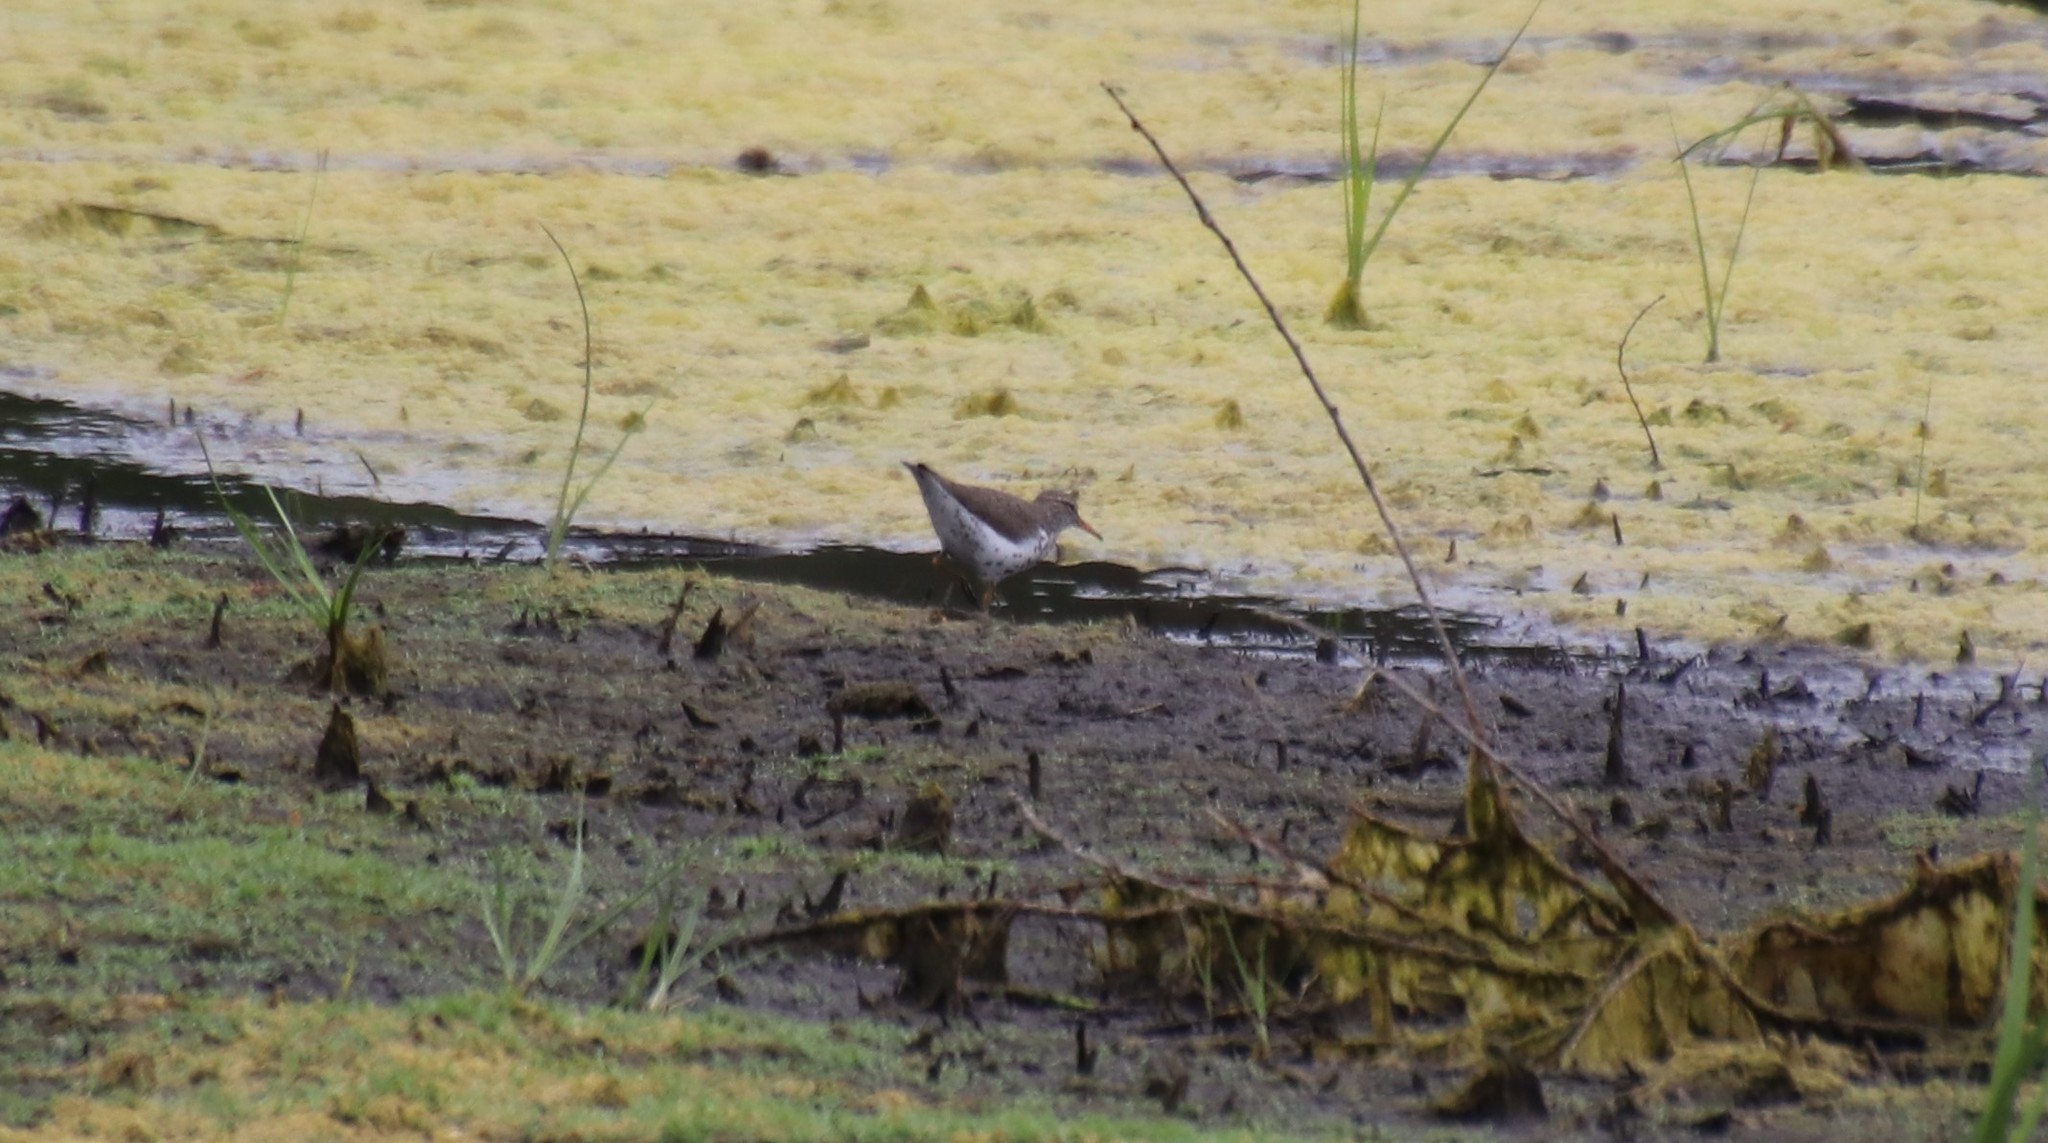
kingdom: Animalia
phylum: Chordata
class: Aves
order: Charadriiformes
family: Scolopacidae
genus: Actitis
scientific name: Actitis macularius
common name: Spotted sandpiper
